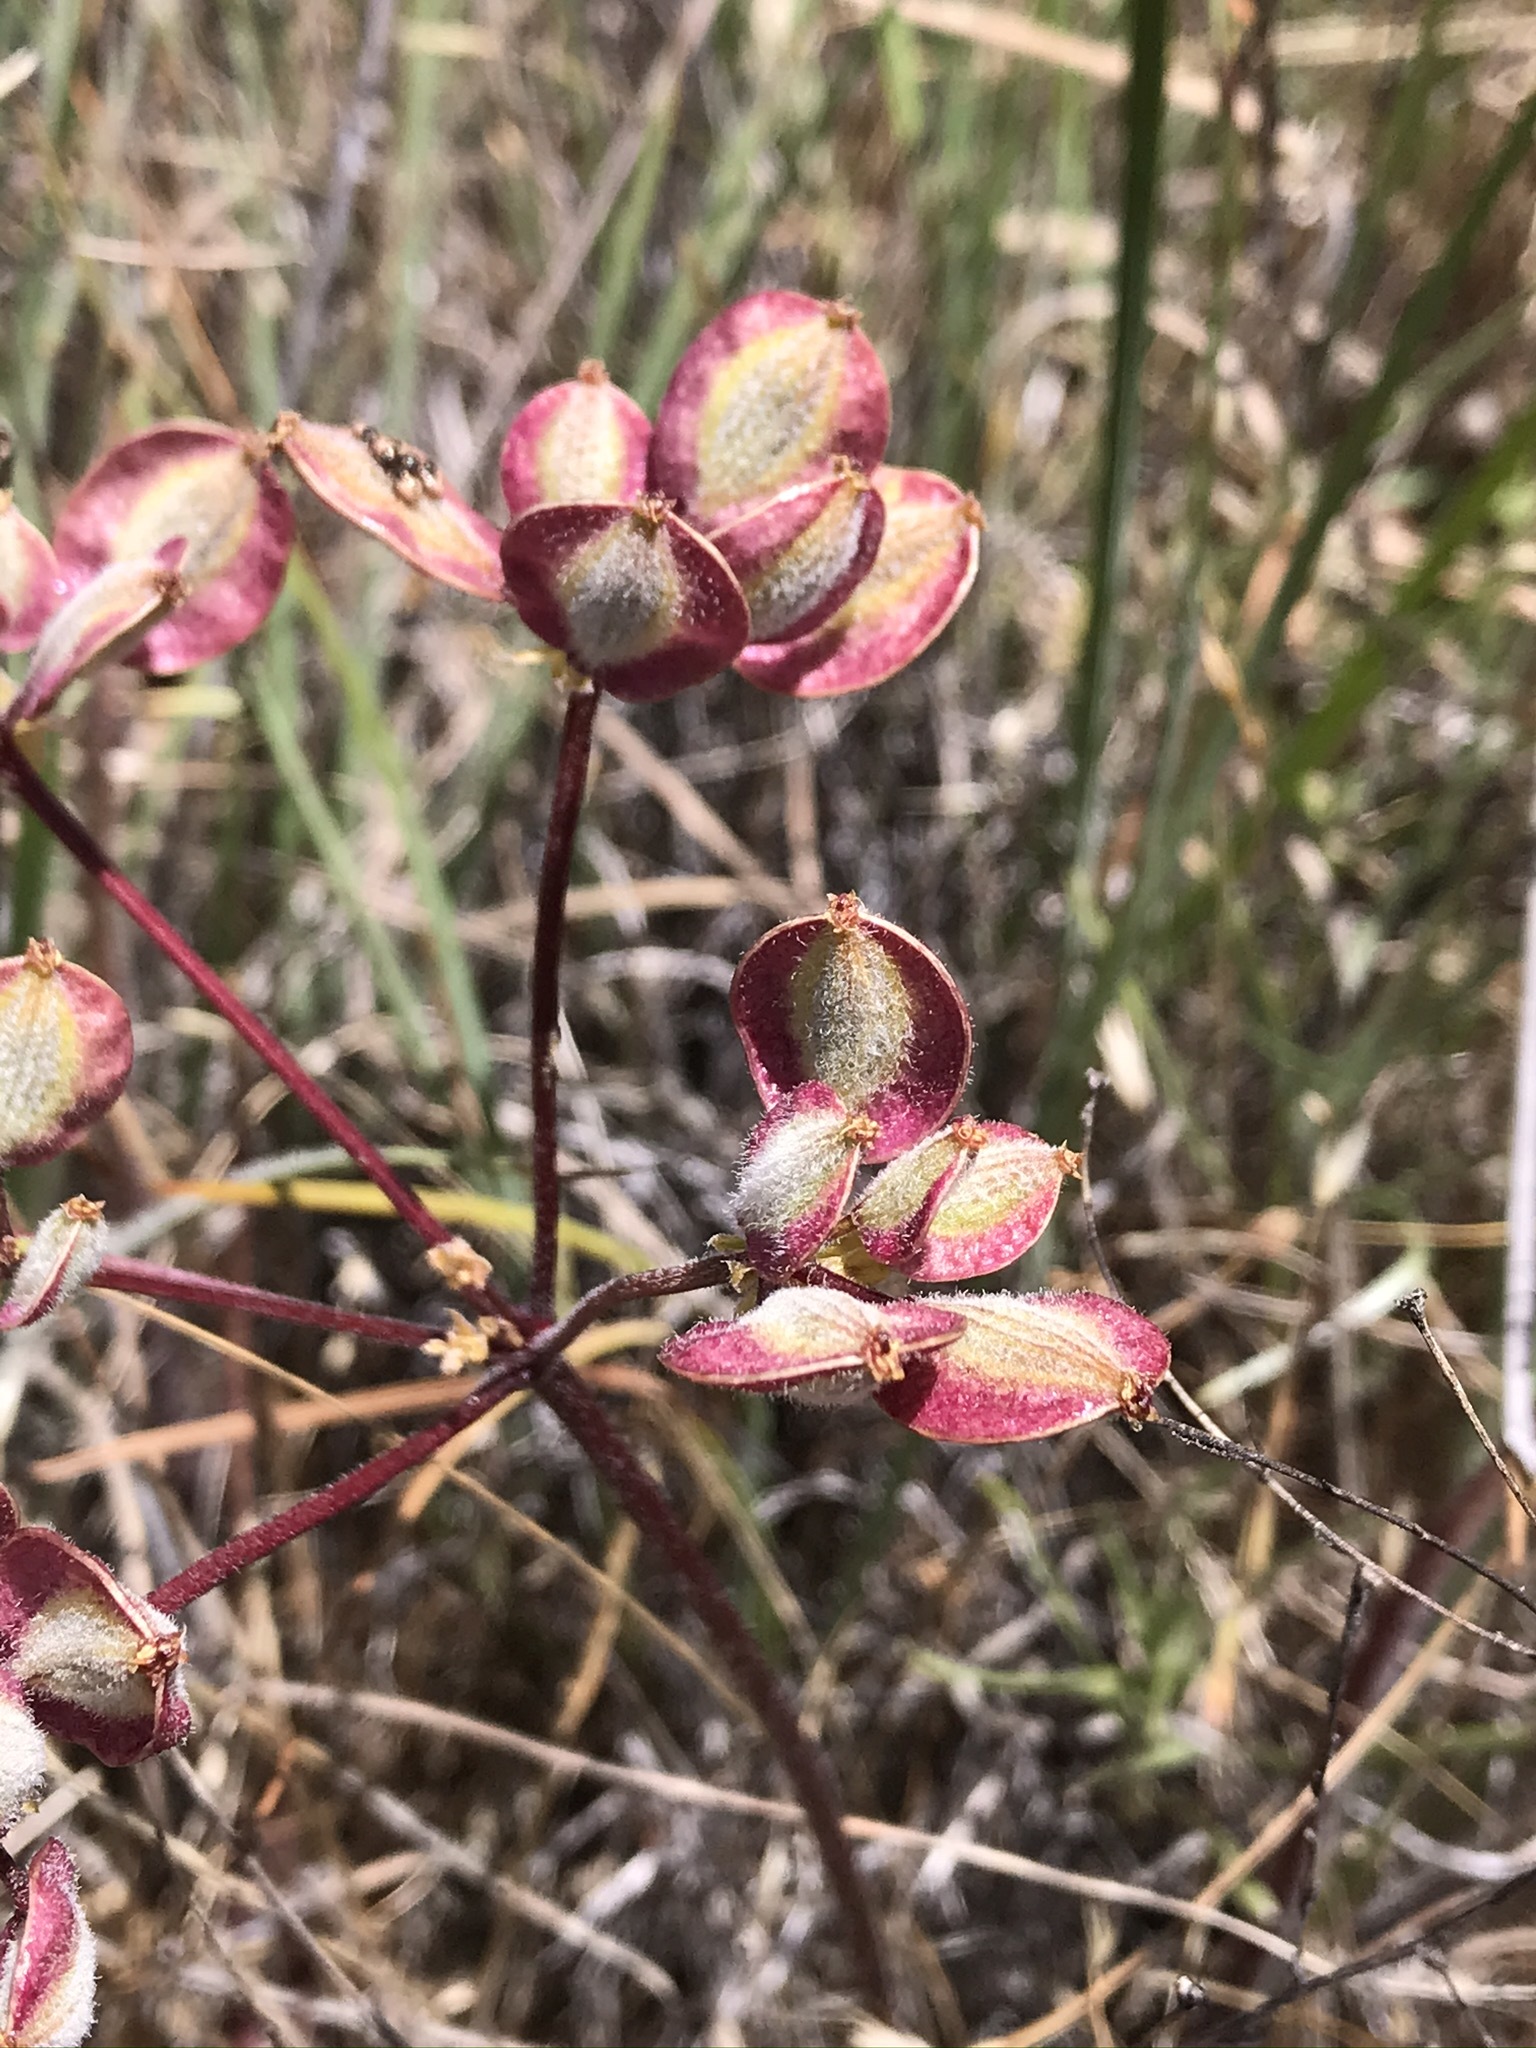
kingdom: Plantae
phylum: Tracheophyta
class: Magnoliopsida
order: Apiales
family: Apiaceae
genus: Lomatium
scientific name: Lomatium dasycarpum
